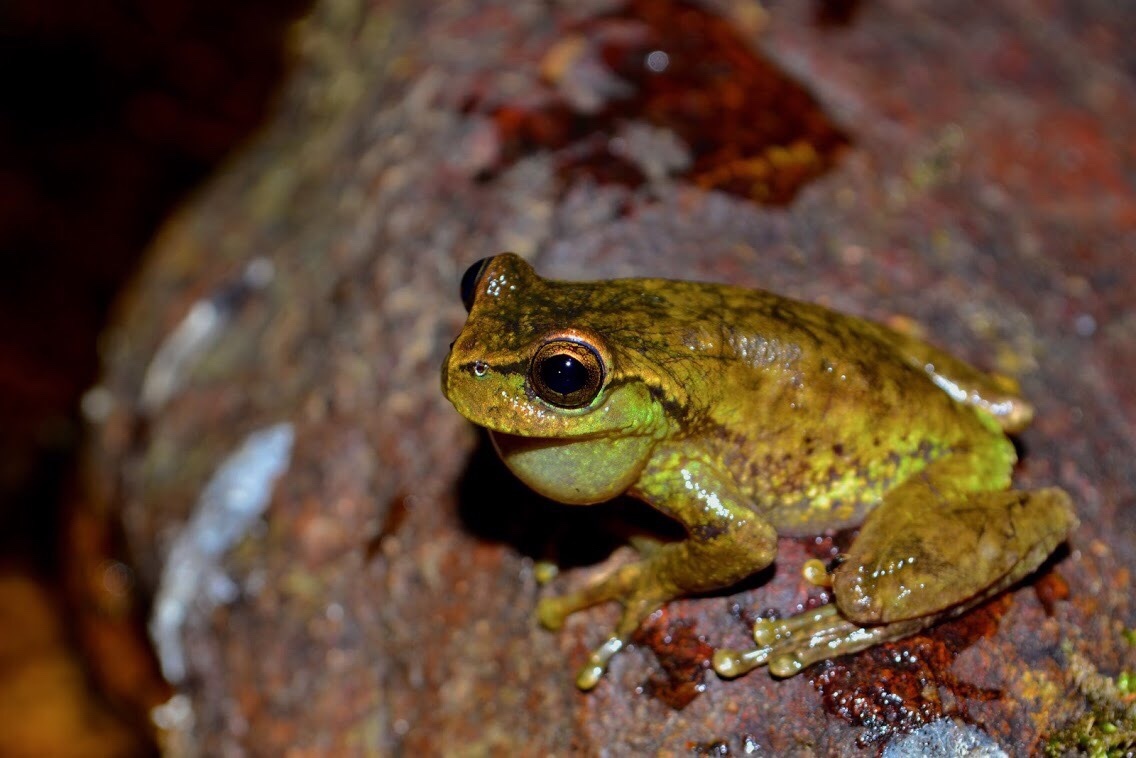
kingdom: Animalia
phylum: Chordata
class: Amphibia
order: Anura
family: Hylidae
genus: Plectrohyla
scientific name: Plectrohyla sagorum
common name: Arcane spikethumb frog
